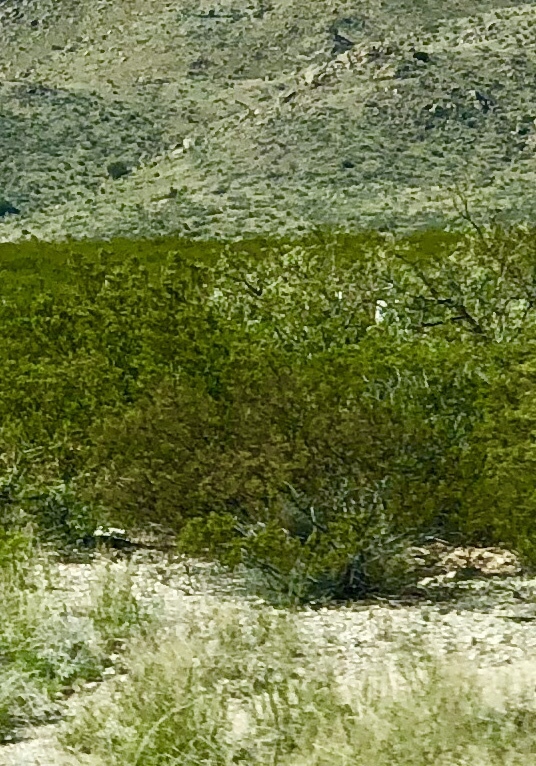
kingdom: Plantae
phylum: Tracheophyta
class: Magnoliopsida
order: Zygophyllales
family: Zygophyllaceae
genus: Larrea
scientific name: Larrea tridentata
